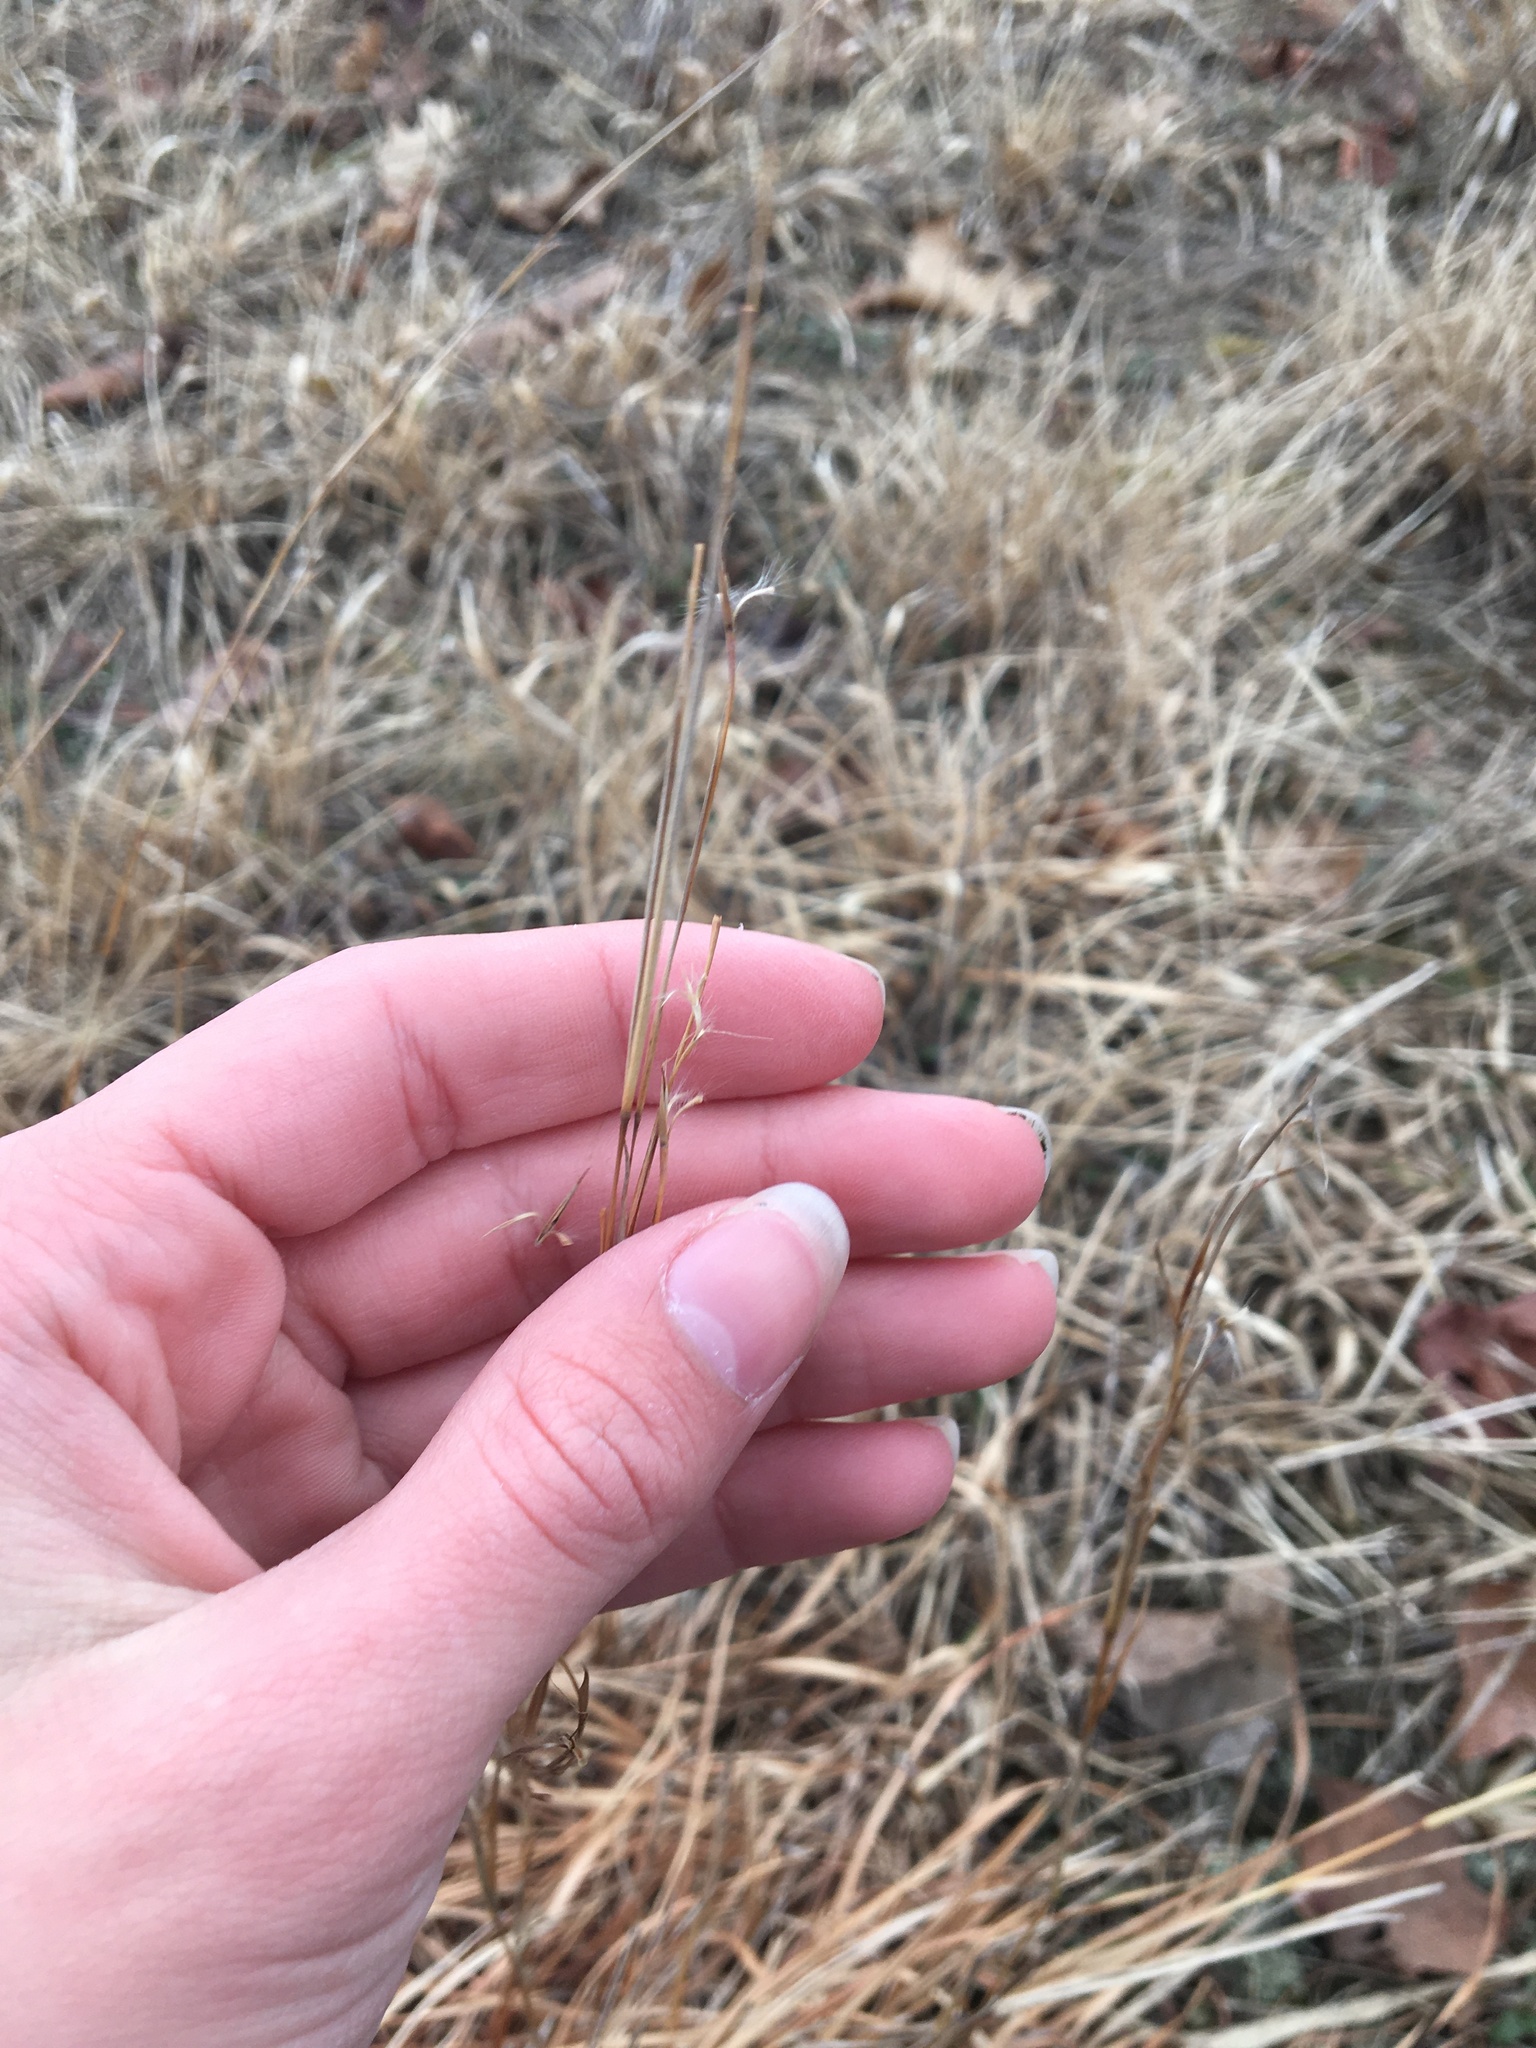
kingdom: Plantae
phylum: Tracheophyta
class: Liliopsida
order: Poales
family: Poaceae
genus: Schizachyrium
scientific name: Schizachyrium scoparium
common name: Little bluestem
